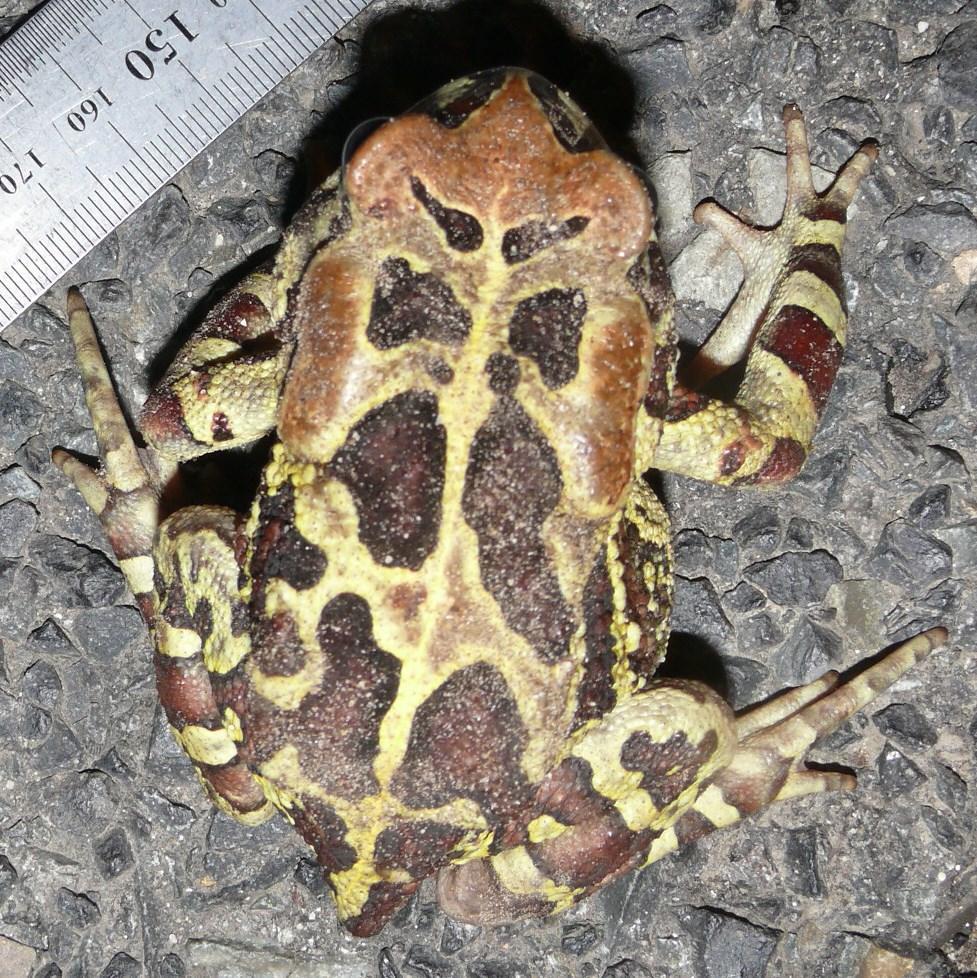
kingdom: Animalia
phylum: Chordata
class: Amphibia
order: Anura
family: Bufonidae
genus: Sclerophrys
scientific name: Sclerophrys pantherina
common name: Panther toad
